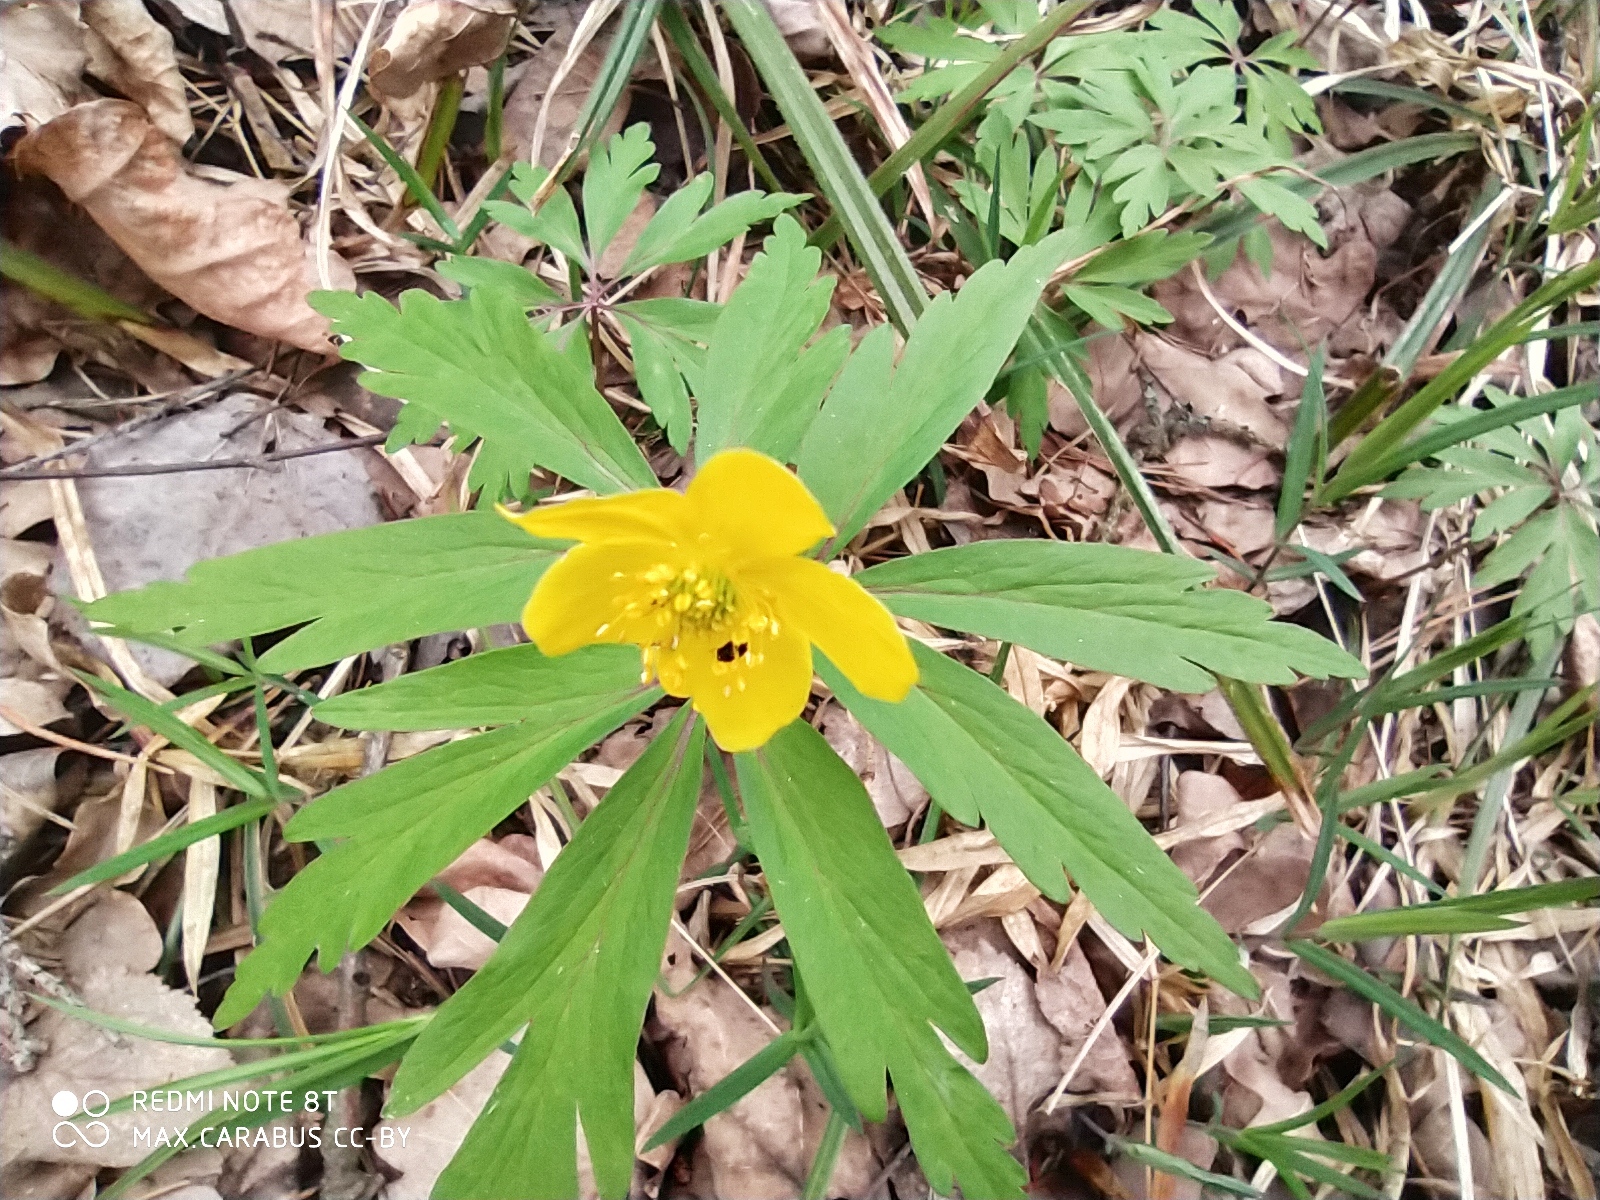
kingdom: Plantae
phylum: Tracheophyta
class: Magnoliopsida
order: Ranunculales
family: Ranunculaceae
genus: Anemone
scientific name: Anemone ranunculoides
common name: Yellow anemone
